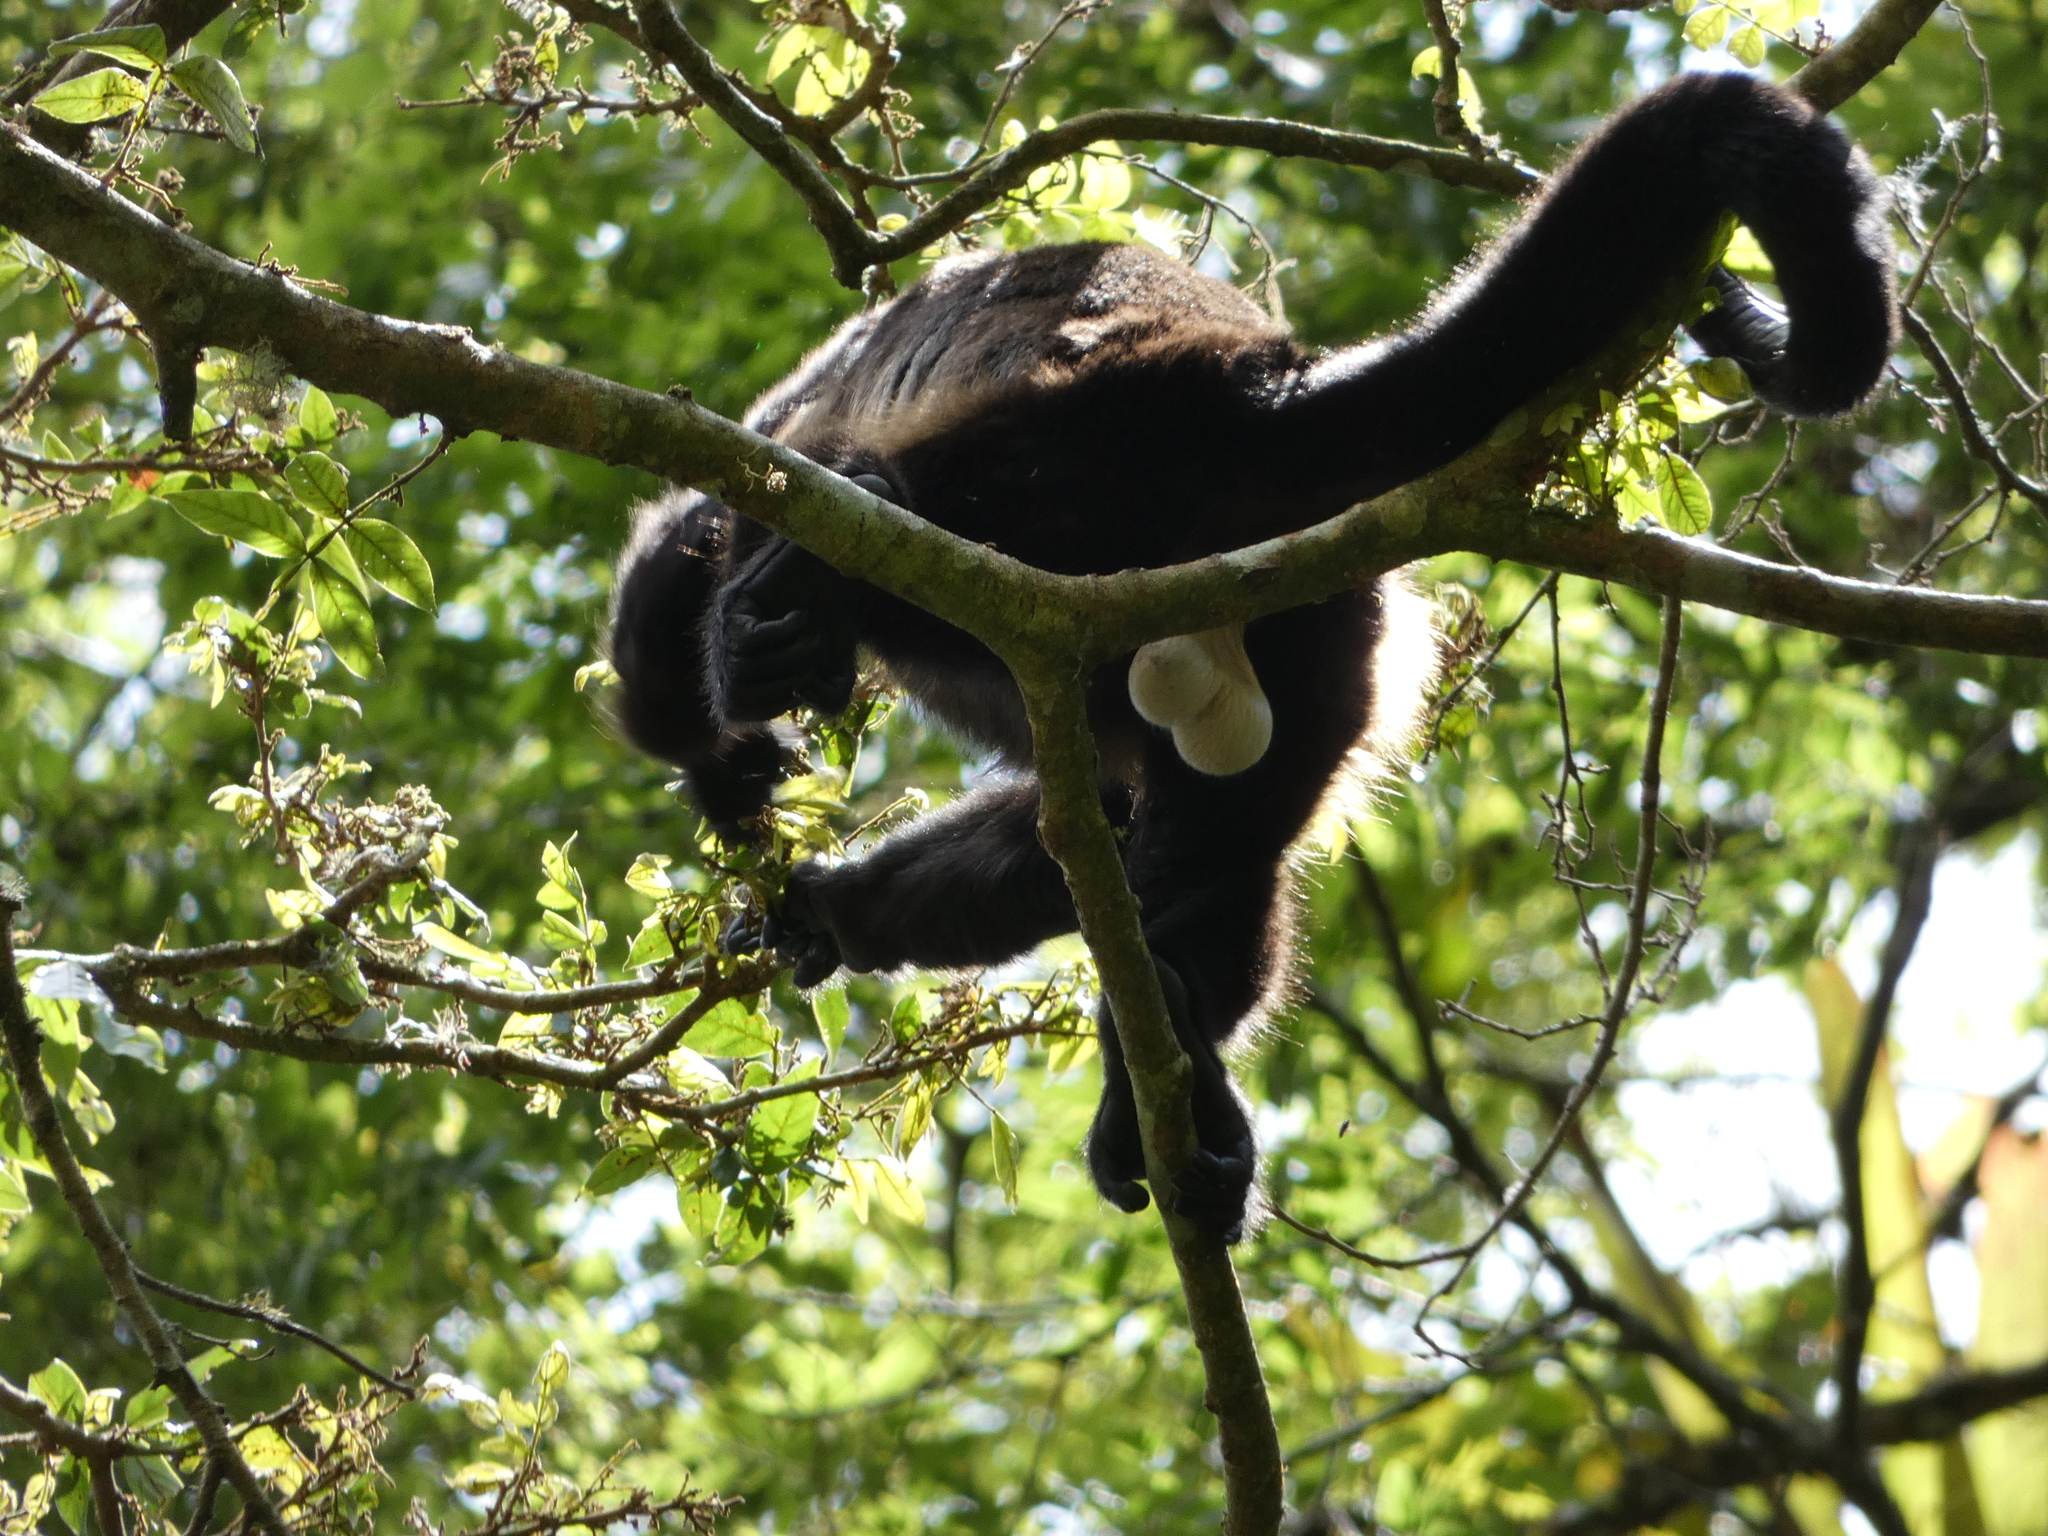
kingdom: Animalia
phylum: Chordata
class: Mammalia
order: Primates
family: Atelidae
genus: Alouatta
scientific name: Alouatta palliata
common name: Mantled howler
